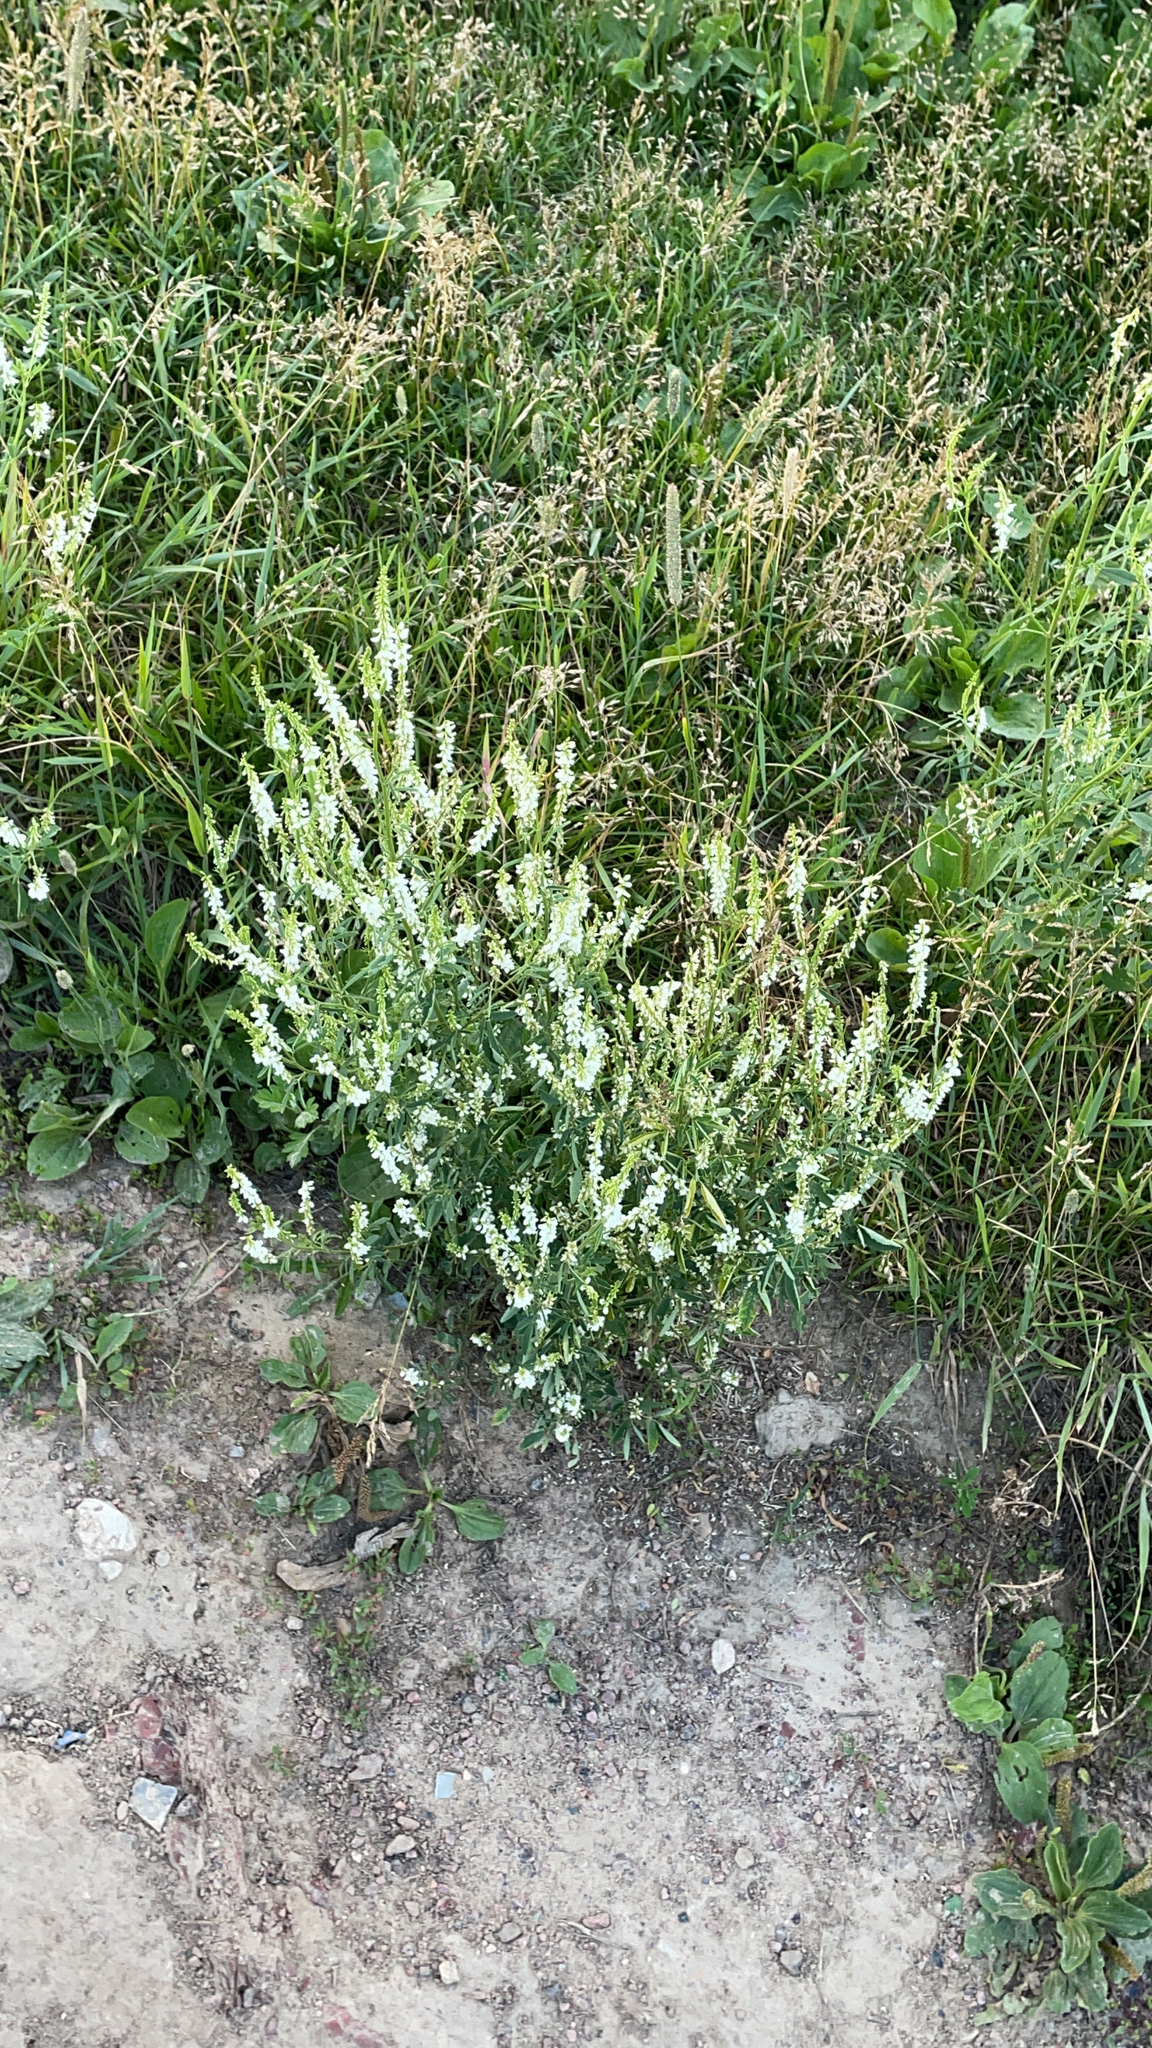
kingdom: Plantae
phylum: Tracheophyta
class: Magnoliopsida
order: Fabales
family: Fabaceae
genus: Melilotus
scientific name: Melilotus albus
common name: White melilot
